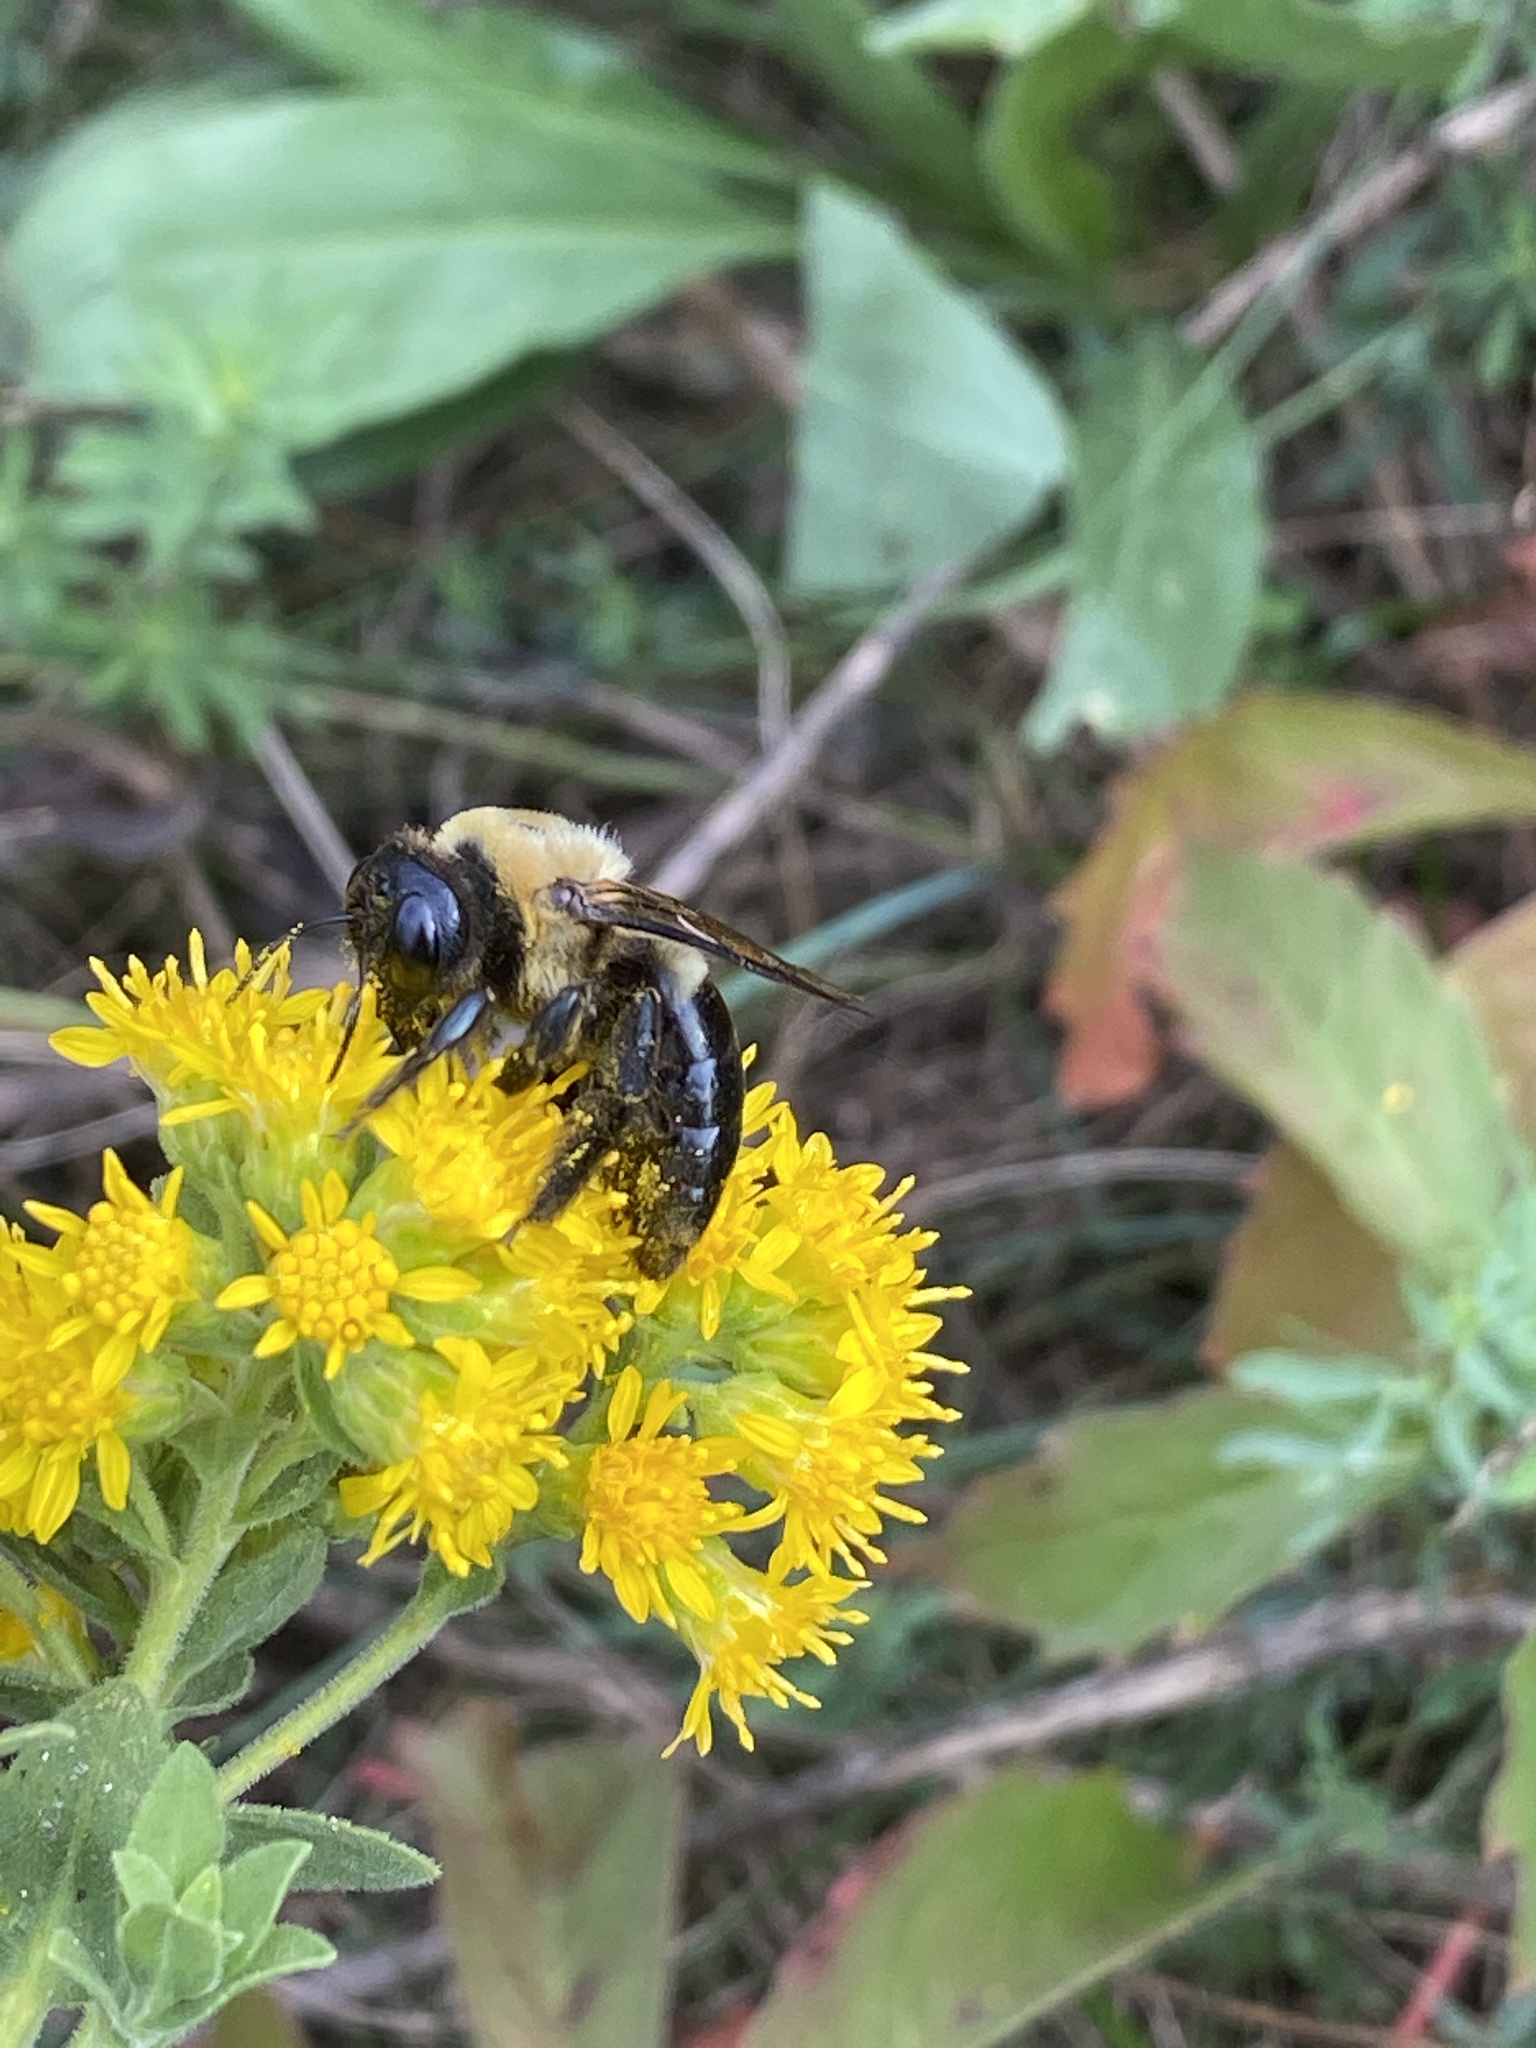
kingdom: Animalia
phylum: Arthropoda
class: Insecta
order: Hymenoptera
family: Apidae
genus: Xylocopa
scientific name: Xylocopa virginica
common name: Carpenter bee
